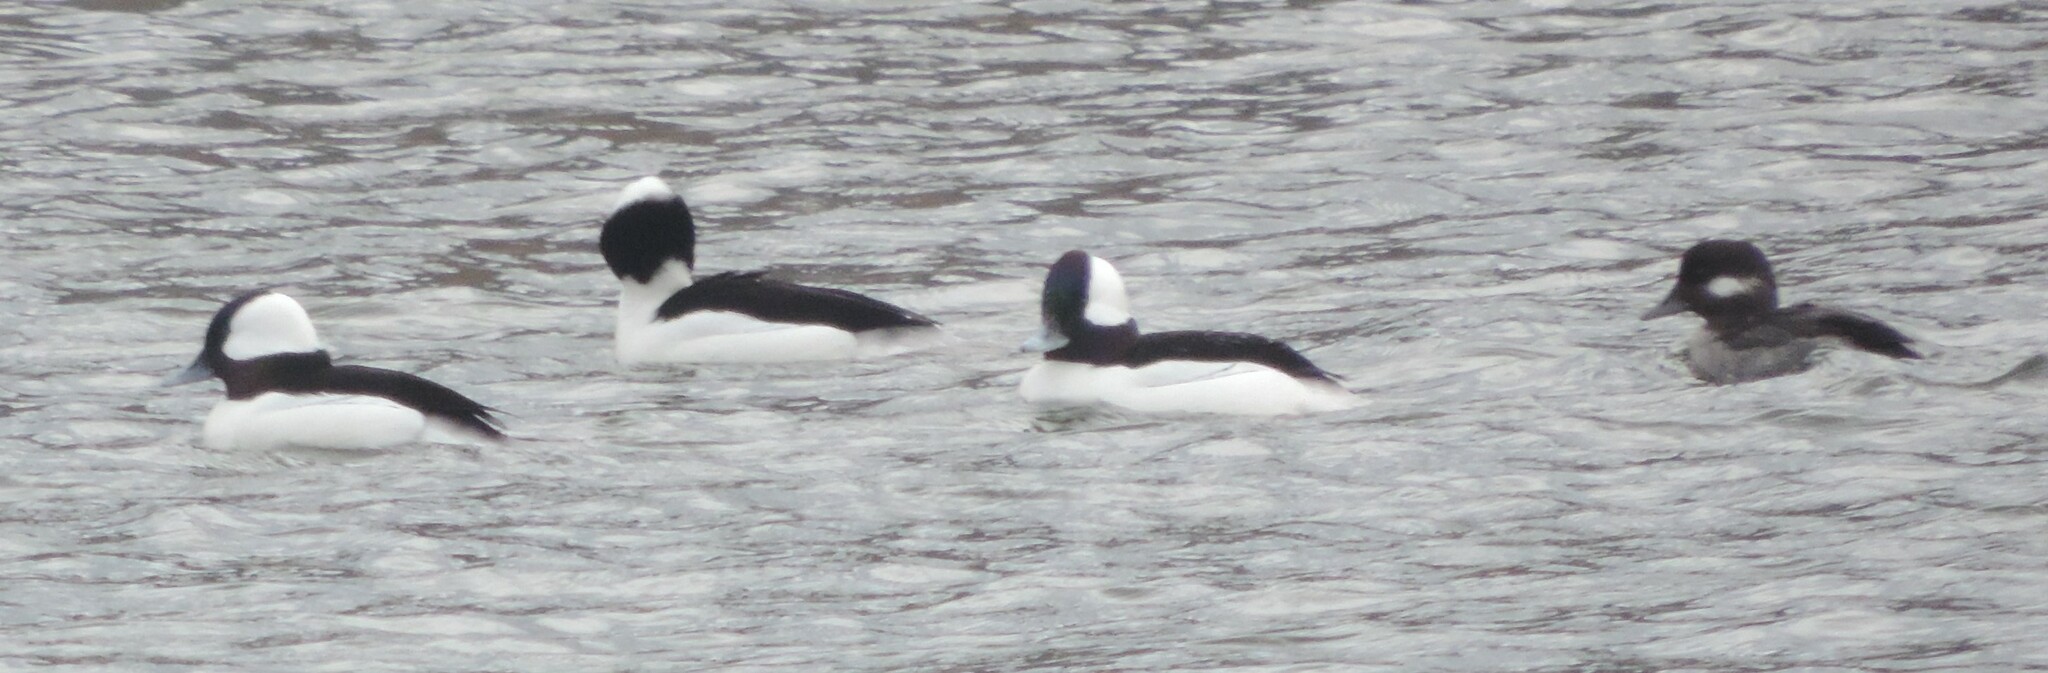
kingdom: Animalia
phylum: Chordata
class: Aves
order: Anseriformes
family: Anatidae
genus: Bucephala
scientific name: Bucephala albeola
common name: Bufflehead
